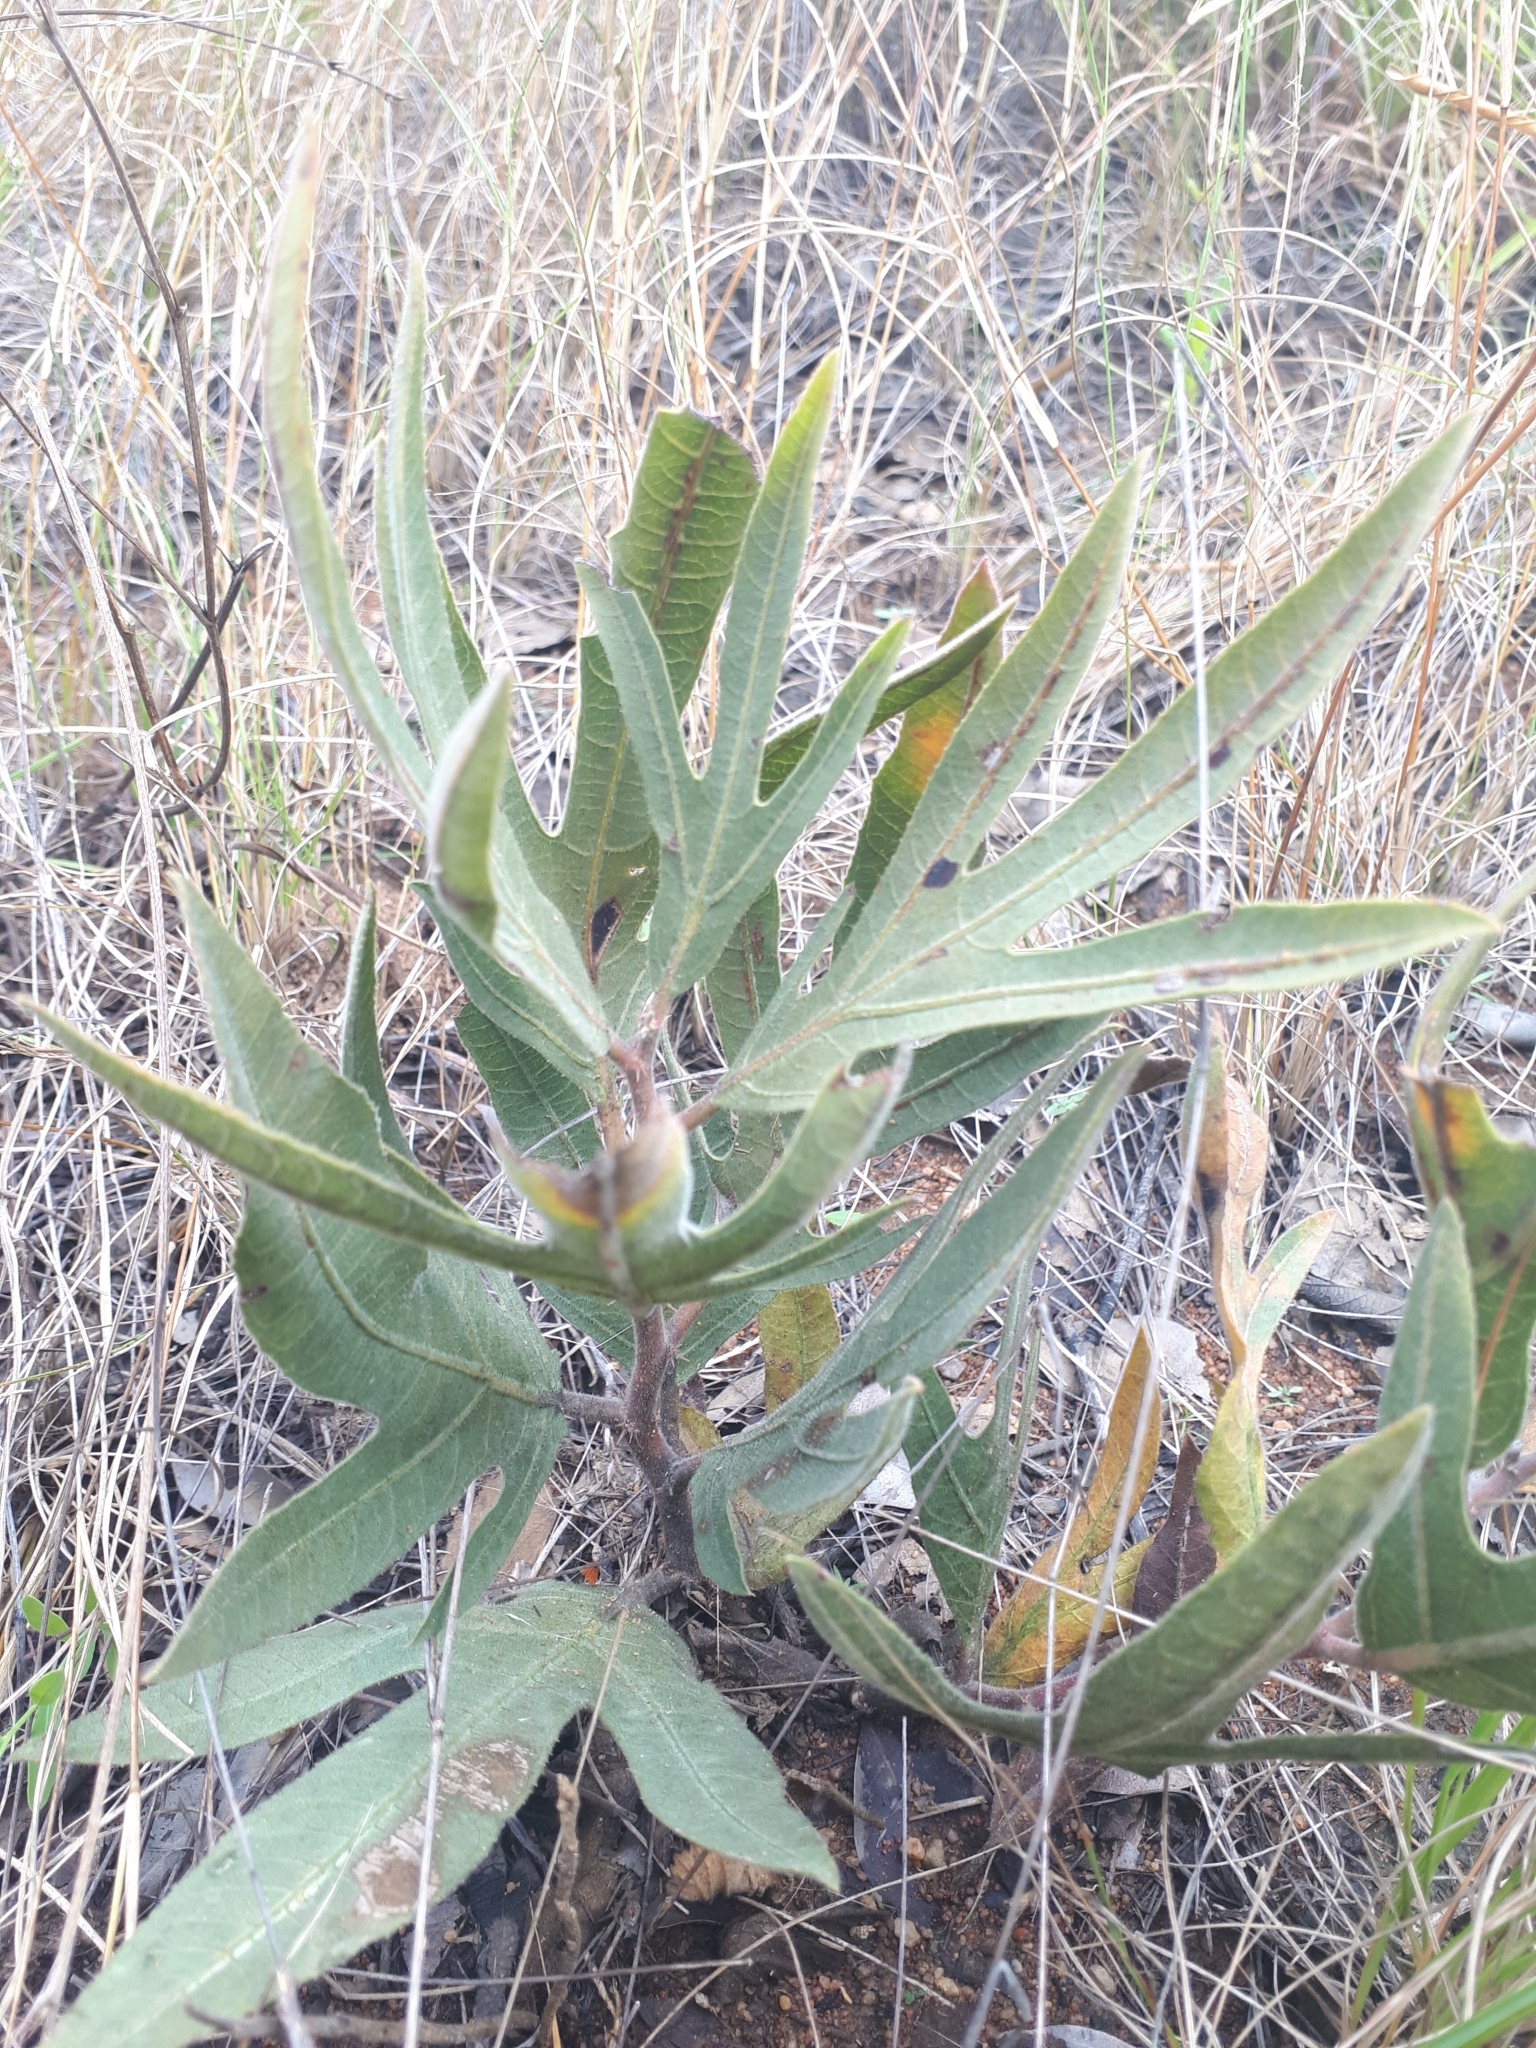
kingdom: Plantae
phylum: Tracheophyta
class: Magnoliopsida
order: Malpighiales
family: Euphorbiaceae
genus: Jatropha
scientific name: Jatropha zeyheri
